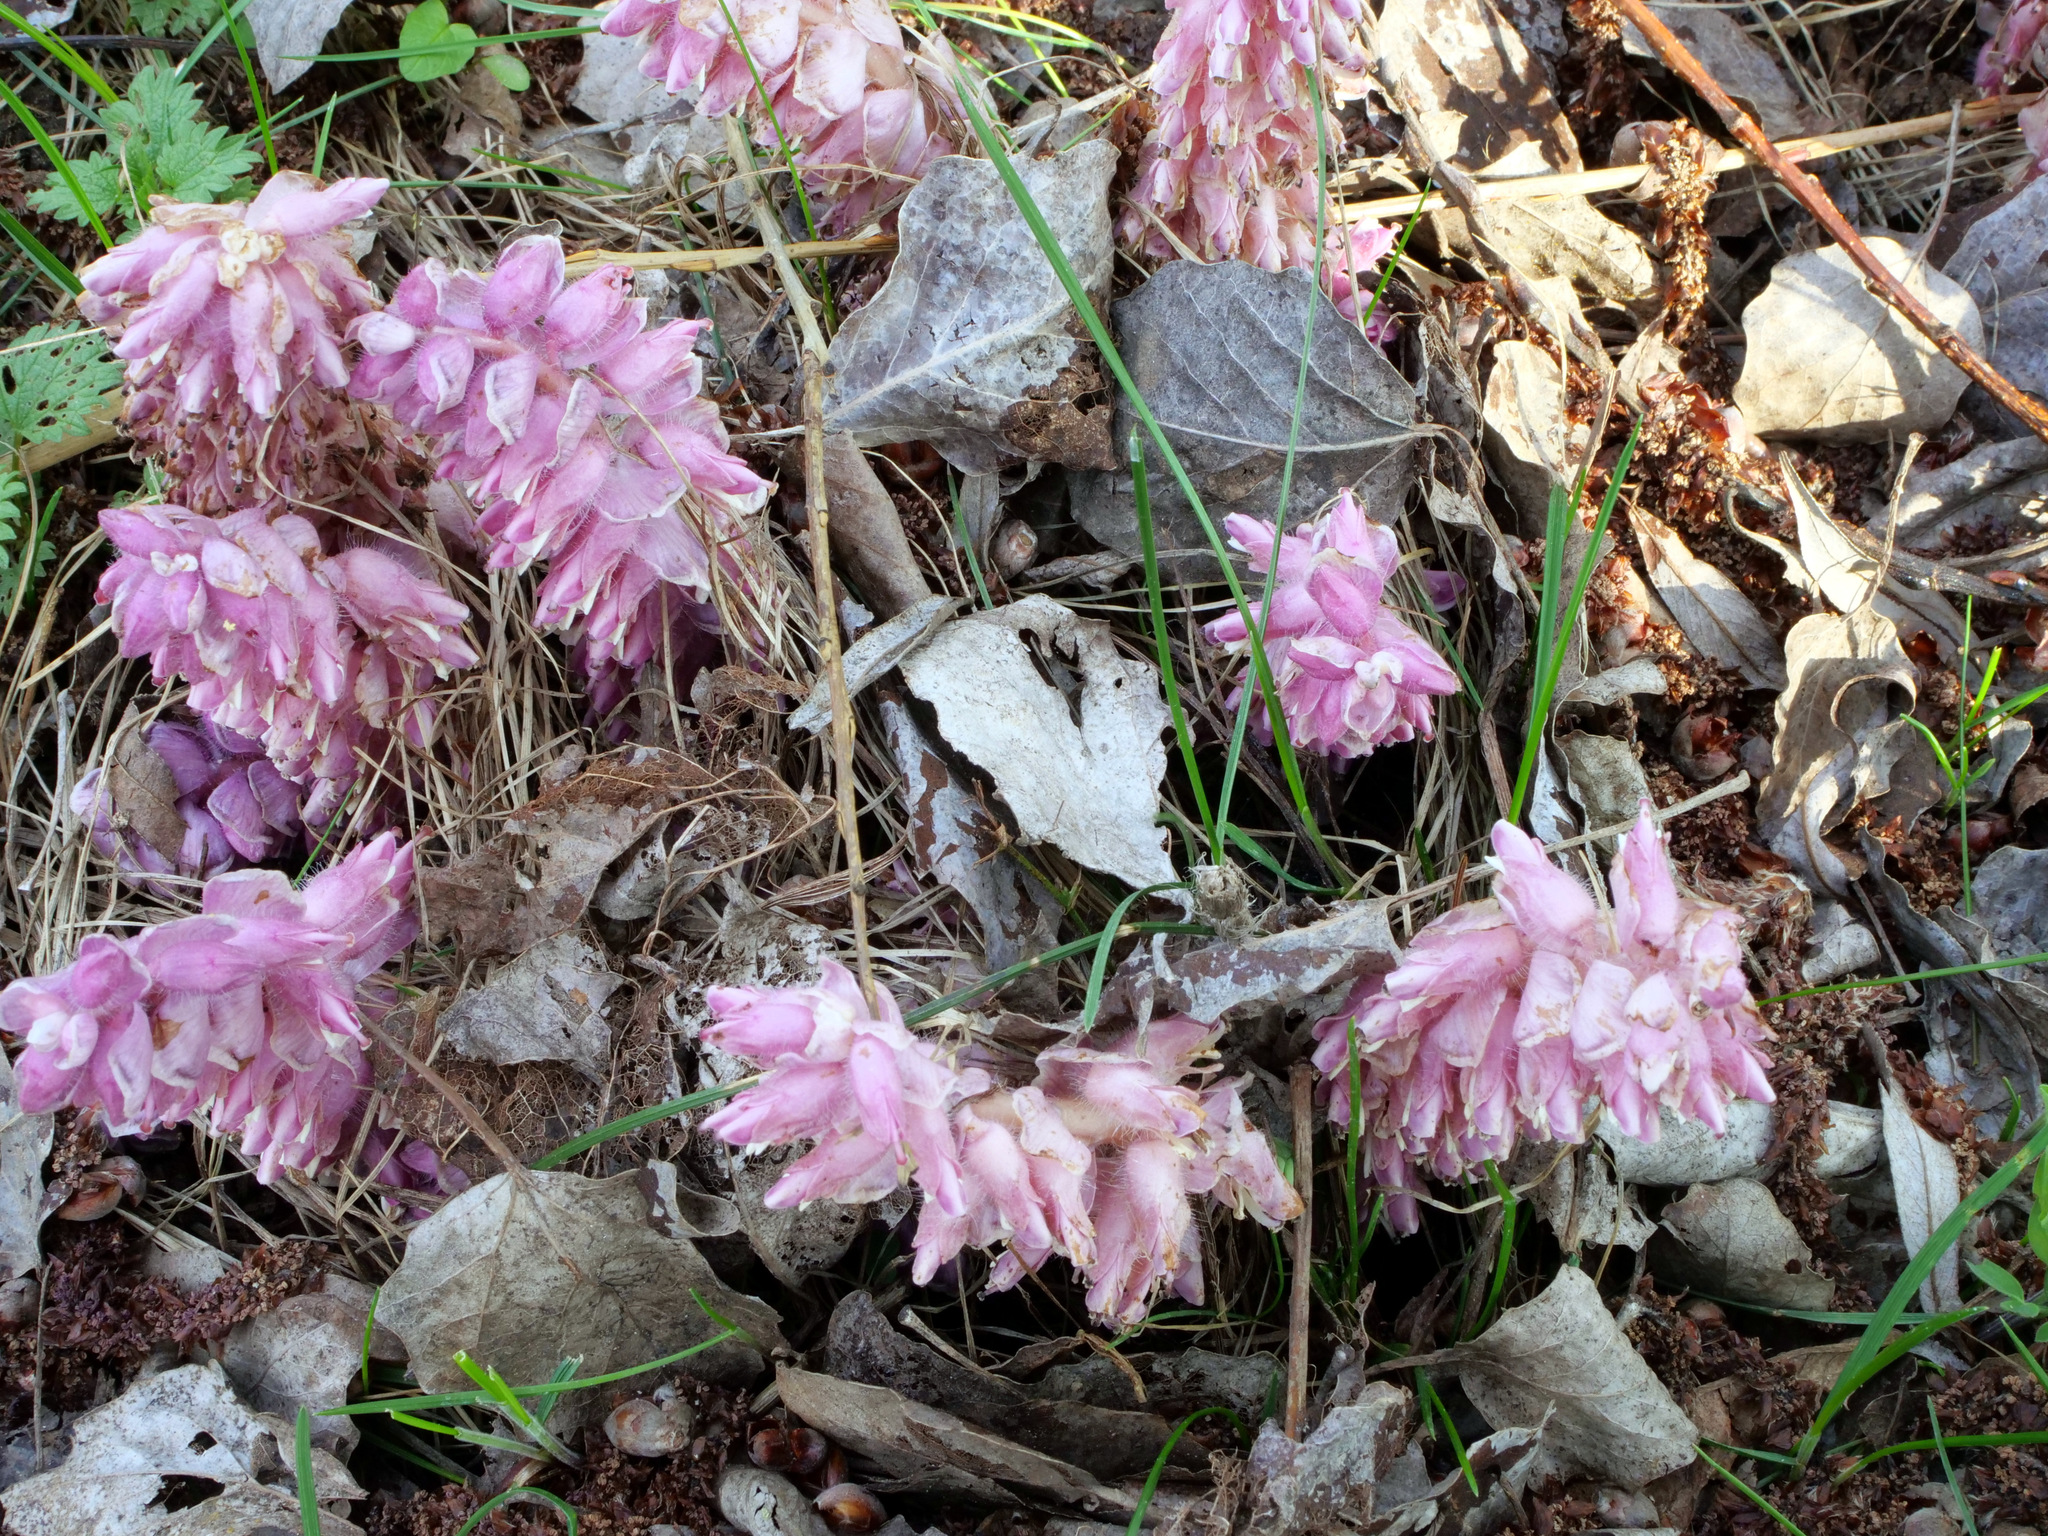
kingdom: Plantae
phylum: Tracheophyta
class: Magnoliopsida
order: Lamiales
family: Orobanchaceae
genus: Lathraea
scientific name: Lathraea squamaria
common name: Toothwort
